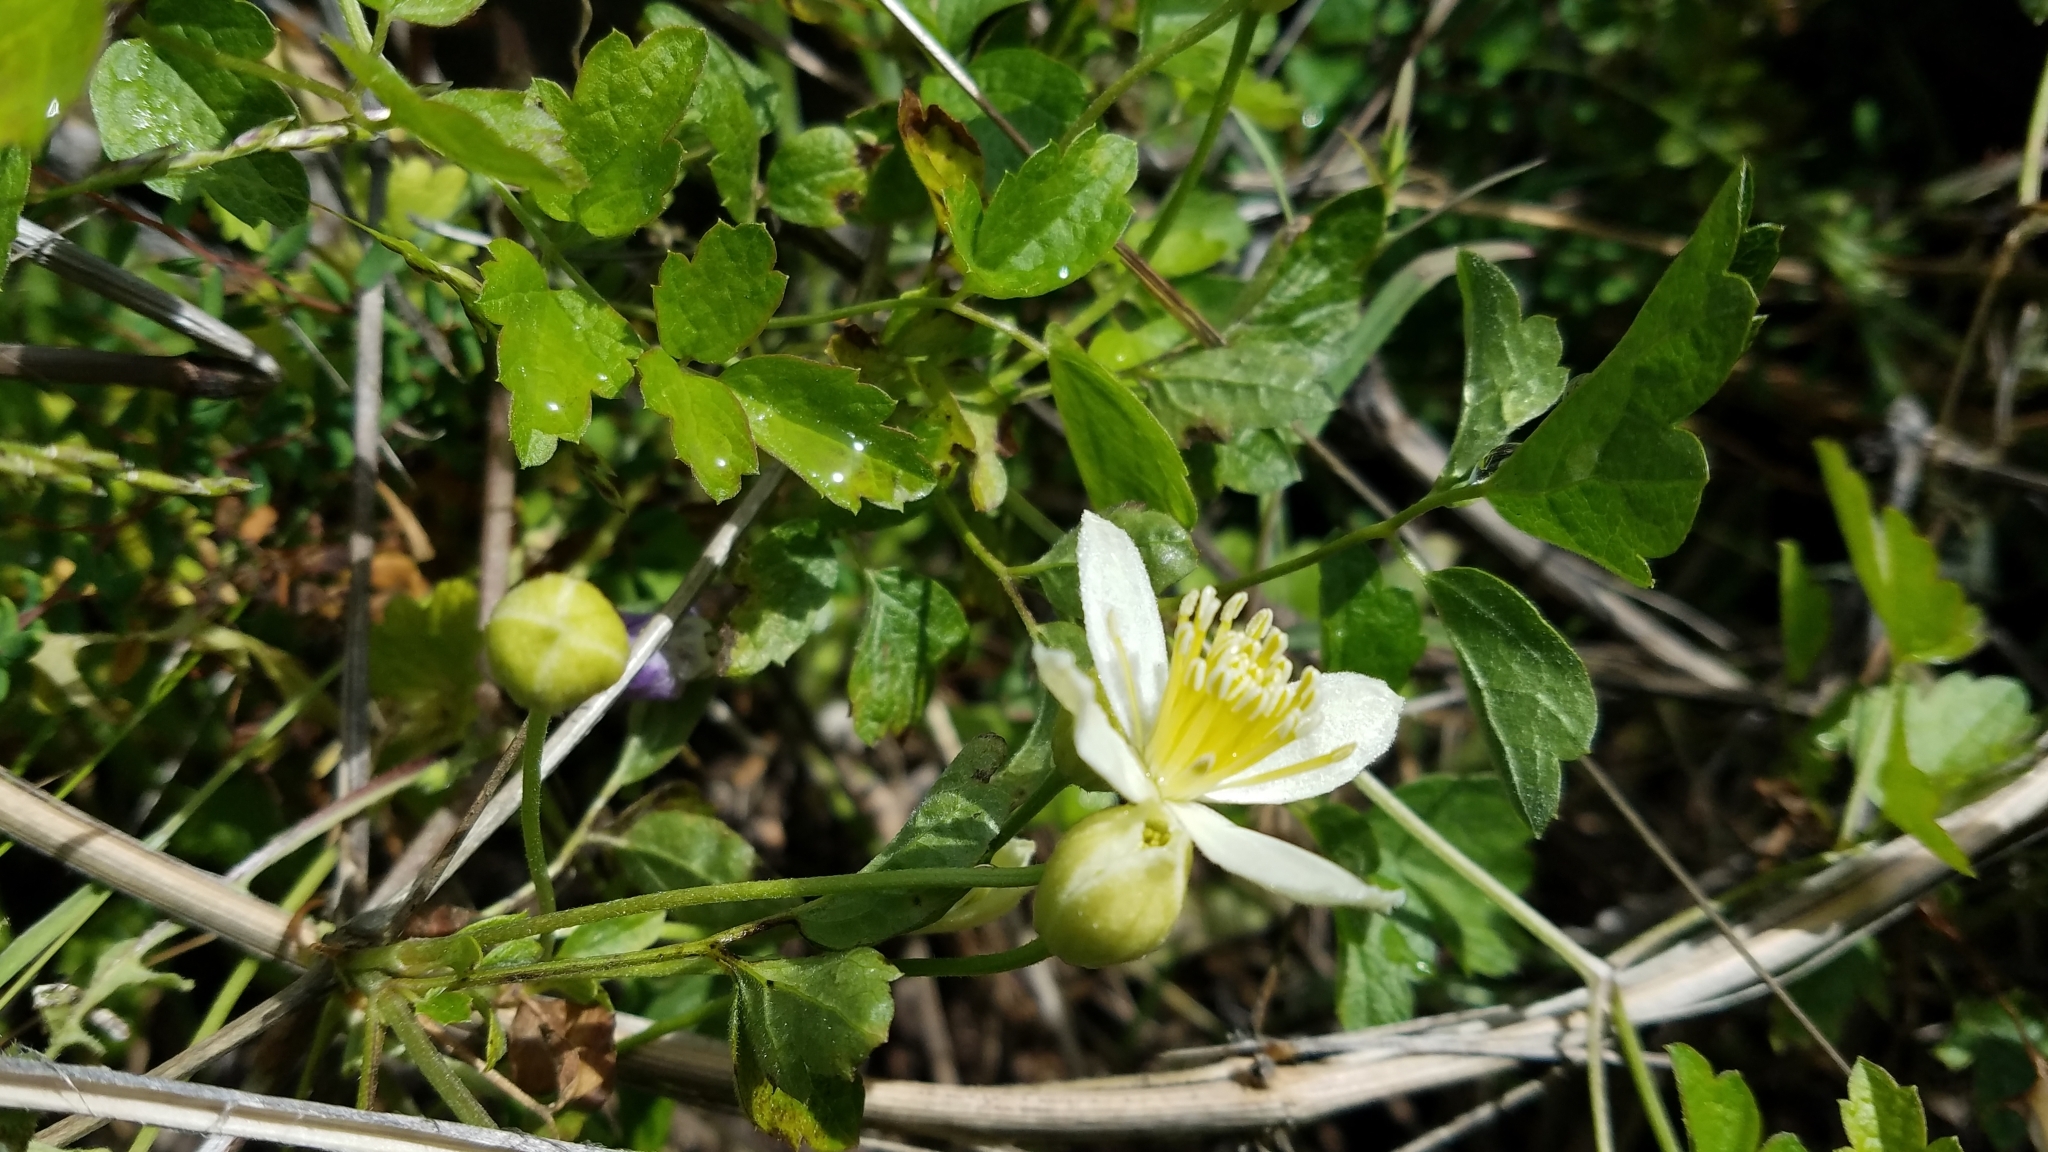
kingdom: Plantae
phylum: Tracheophyta
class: Magnoliopsida
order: Ranunculales
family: Ranunculaceae
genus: Clematis
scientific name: Clematis lasiantha
